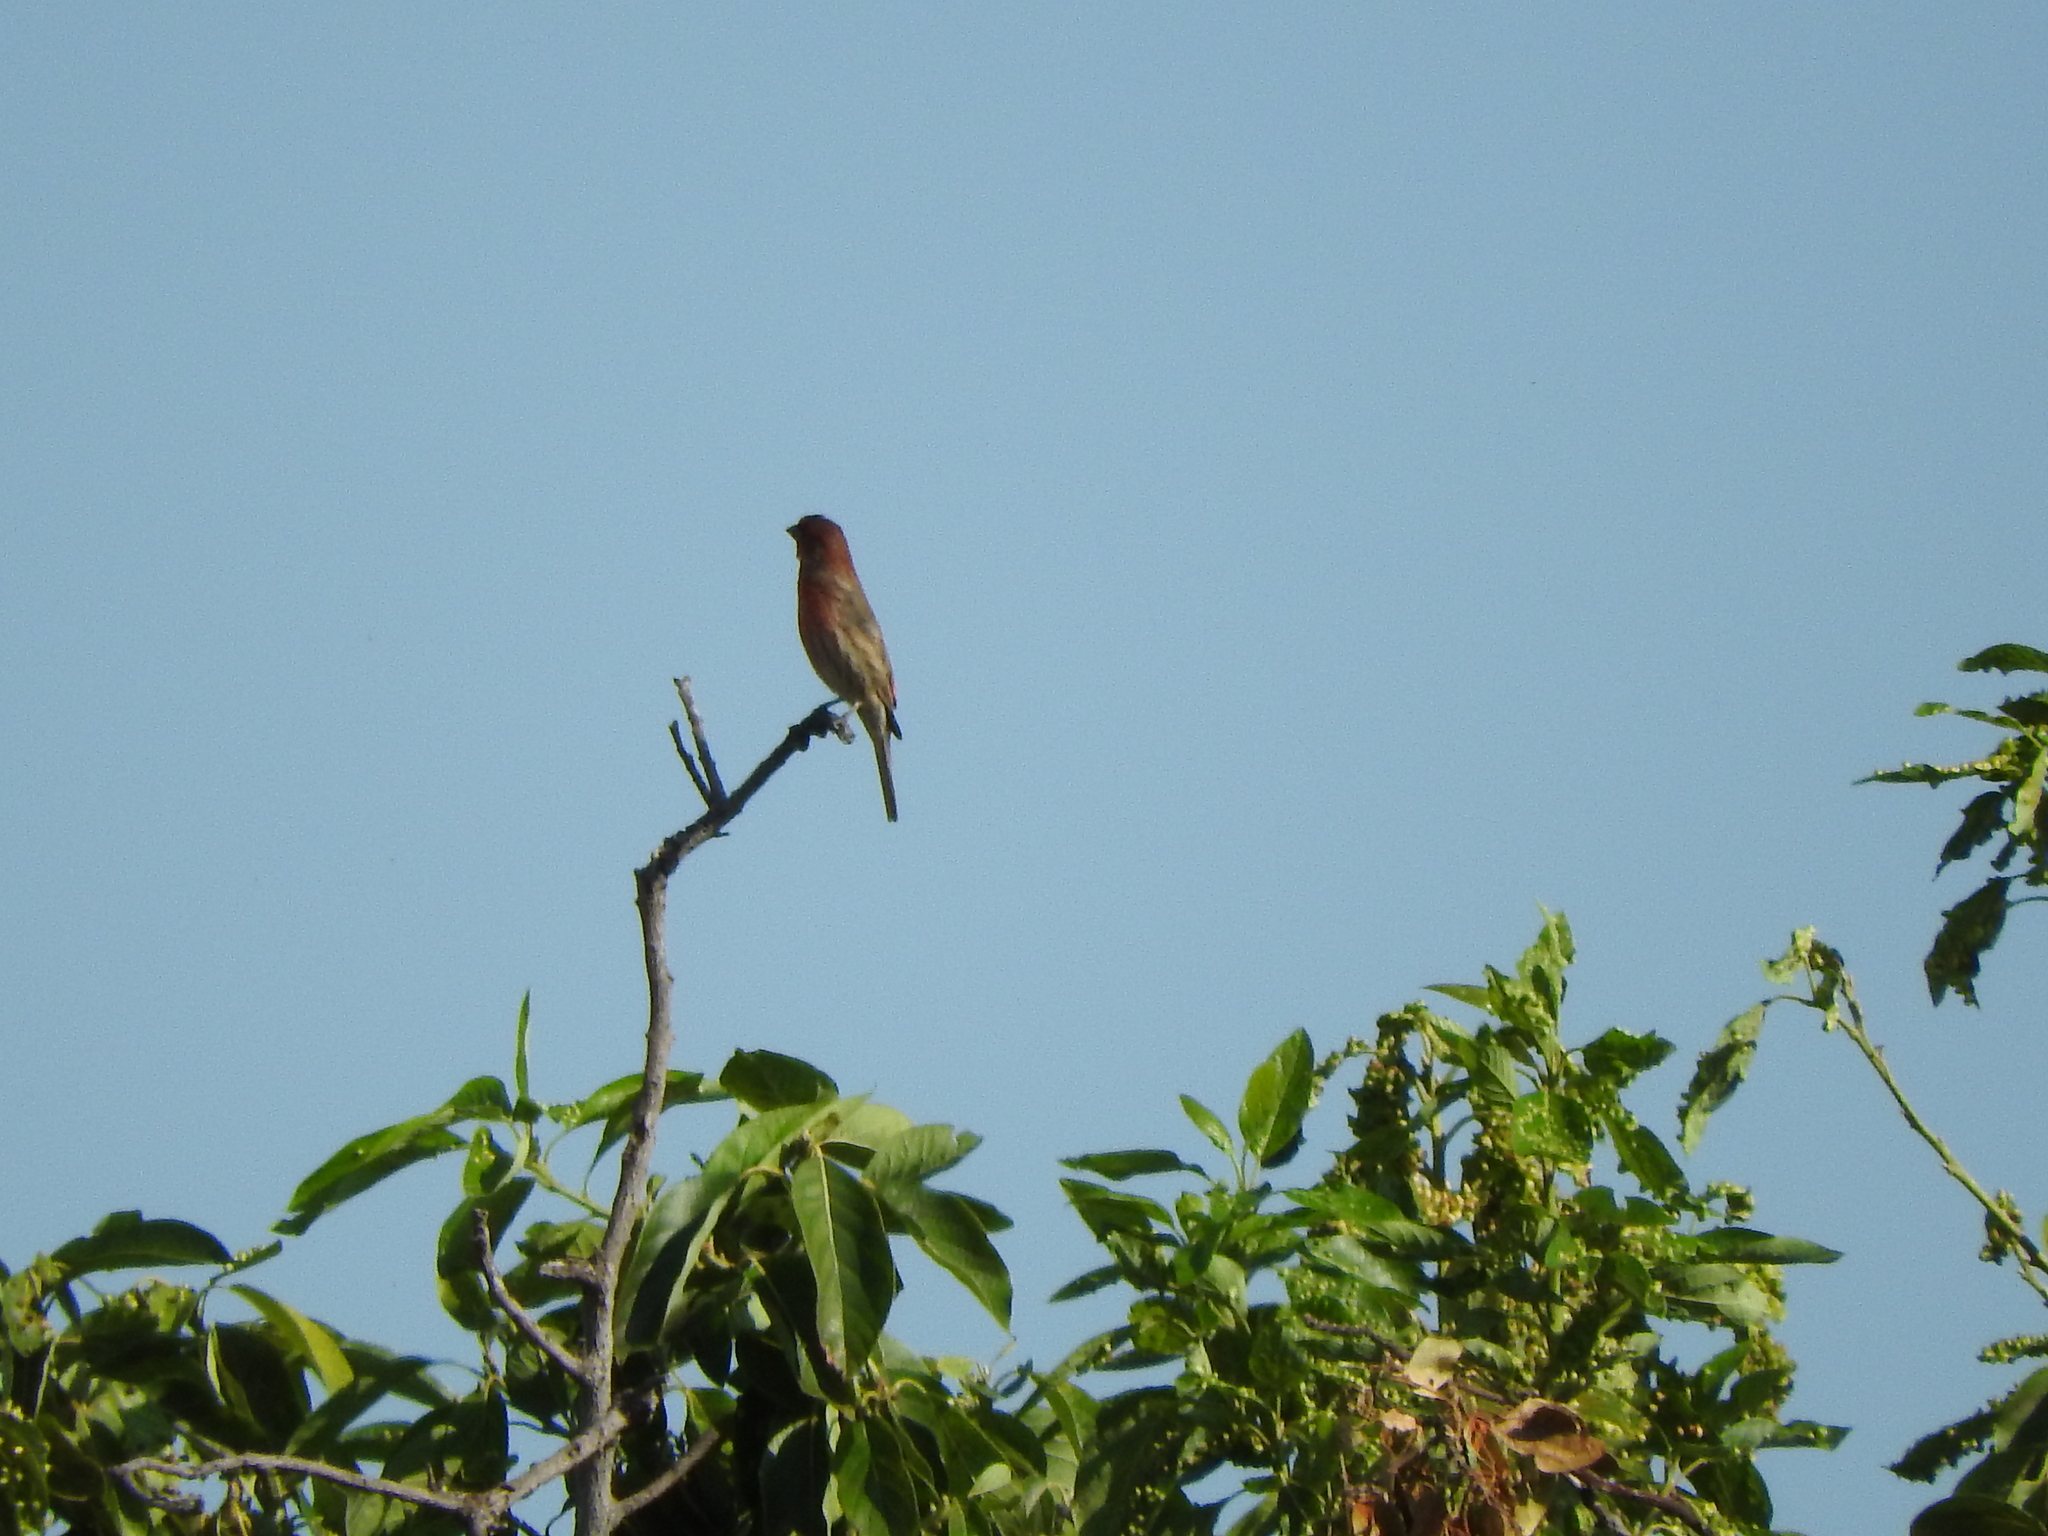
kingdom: Animalia
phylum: Chordata
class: Aves
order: Passeriformes
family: Fringillidae
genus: Haemorhous
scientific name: Haemorhous mexicanus
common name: House finch
